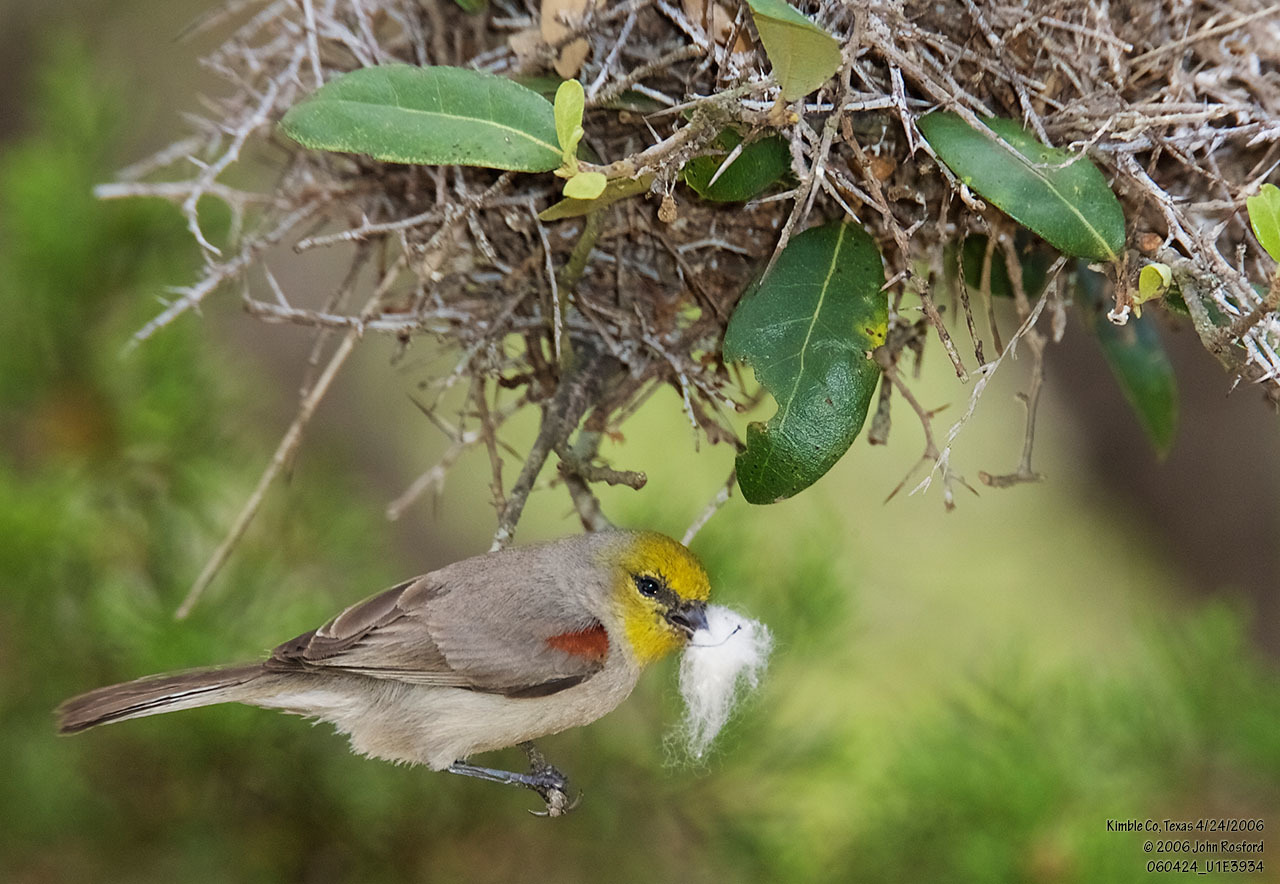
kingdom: Animalia
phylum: Chordata
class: Aves
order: Passeriformes
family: Remizidae
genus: Auriparus
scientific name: Auriparus flaviceps
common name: Verdin
